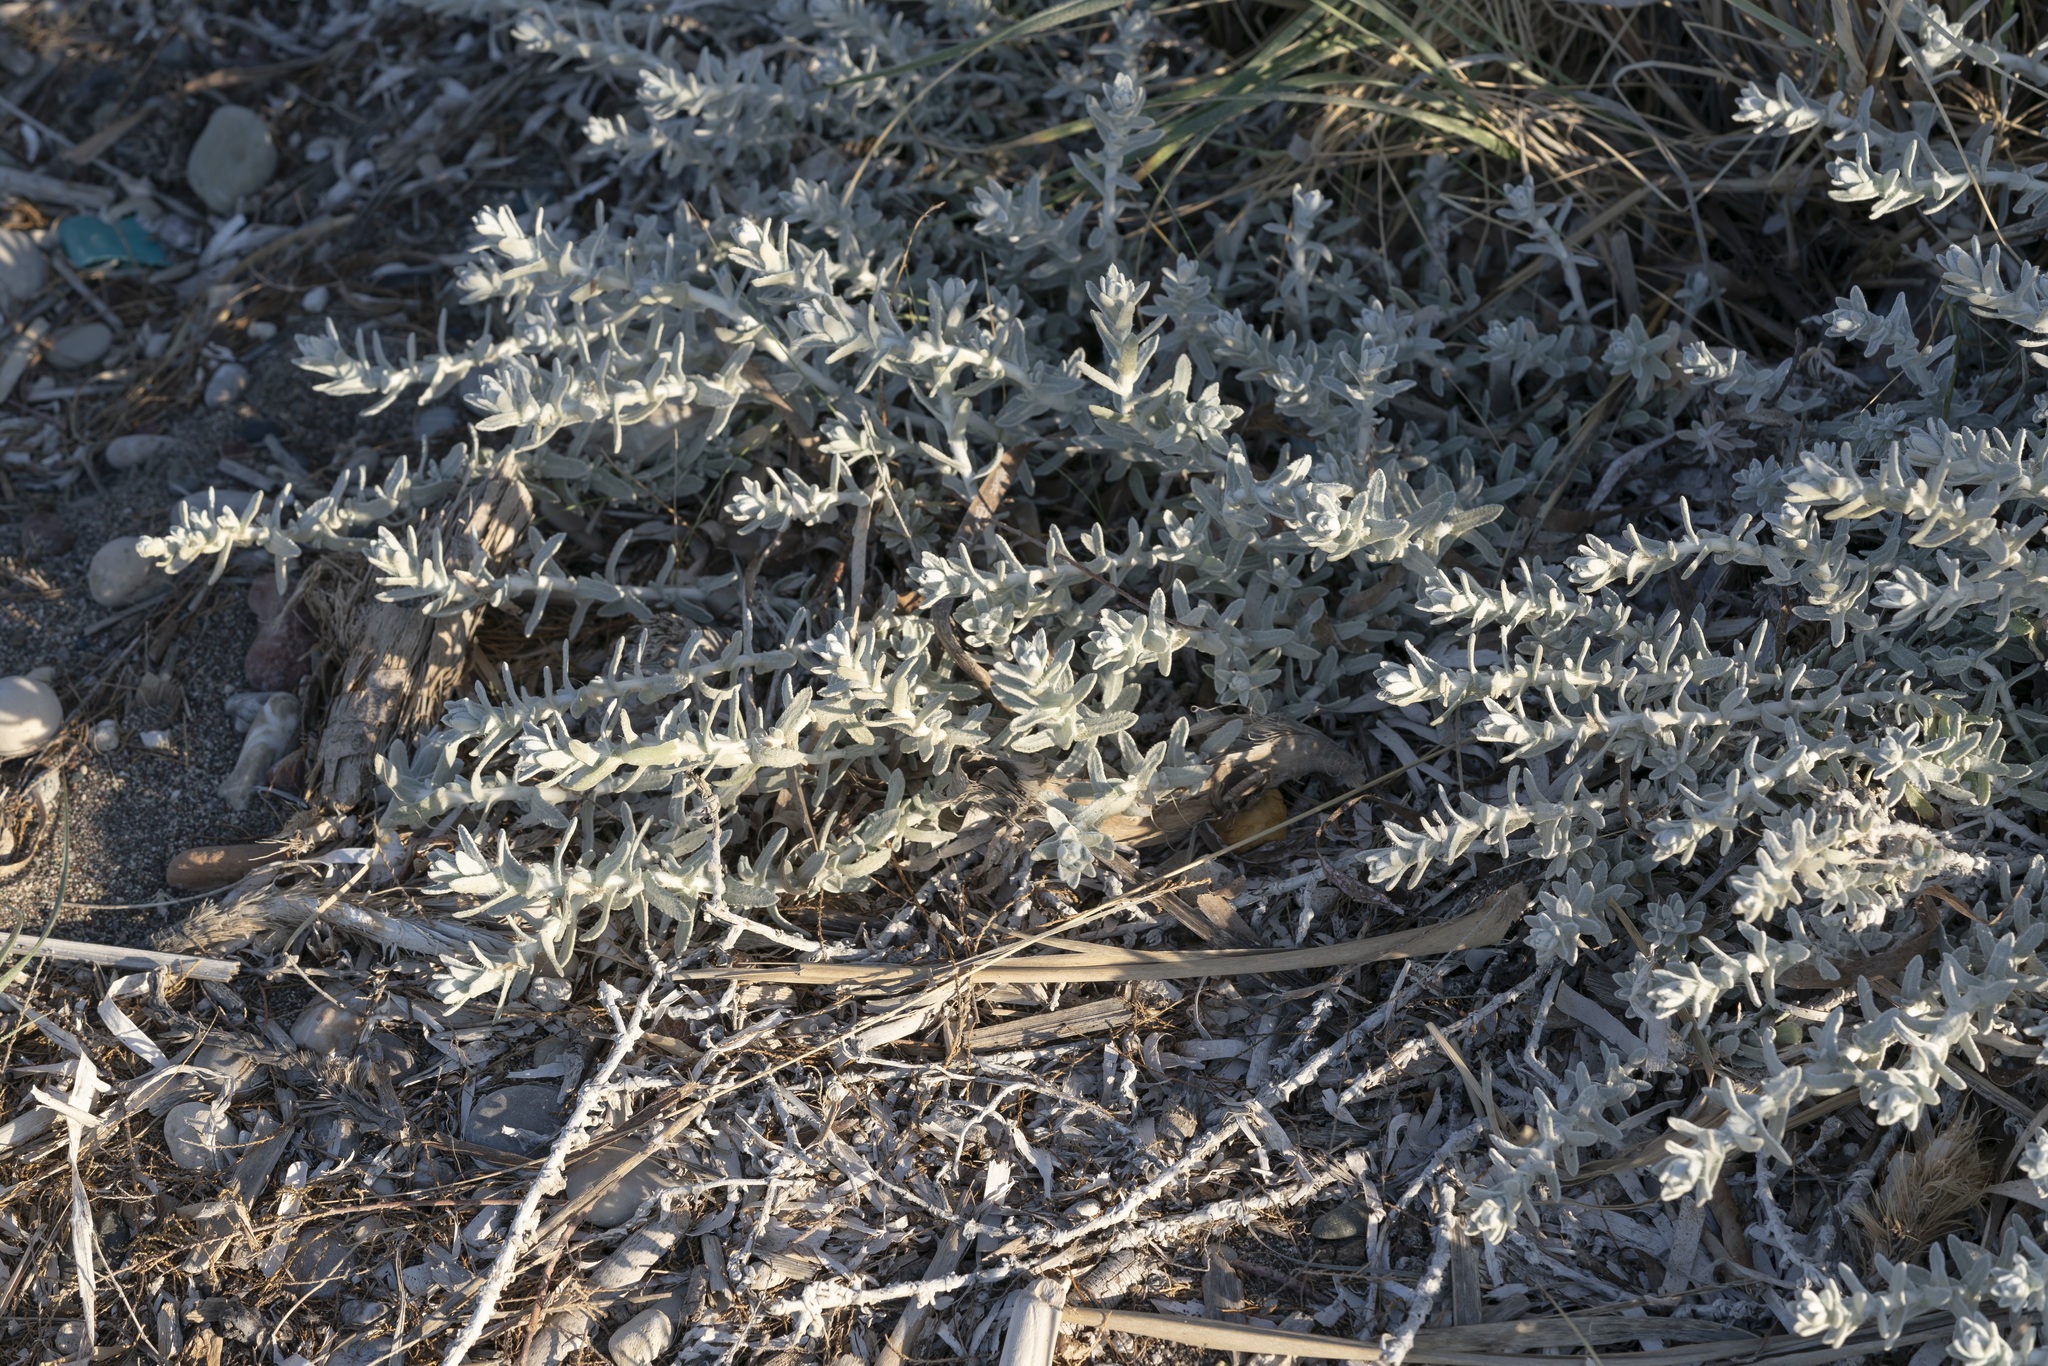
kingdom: Plantae
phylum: Tracheophyta
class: Magnoliopsida
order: Asterales
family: Asteraceae
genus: Achillea
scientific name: Achillea maritima
